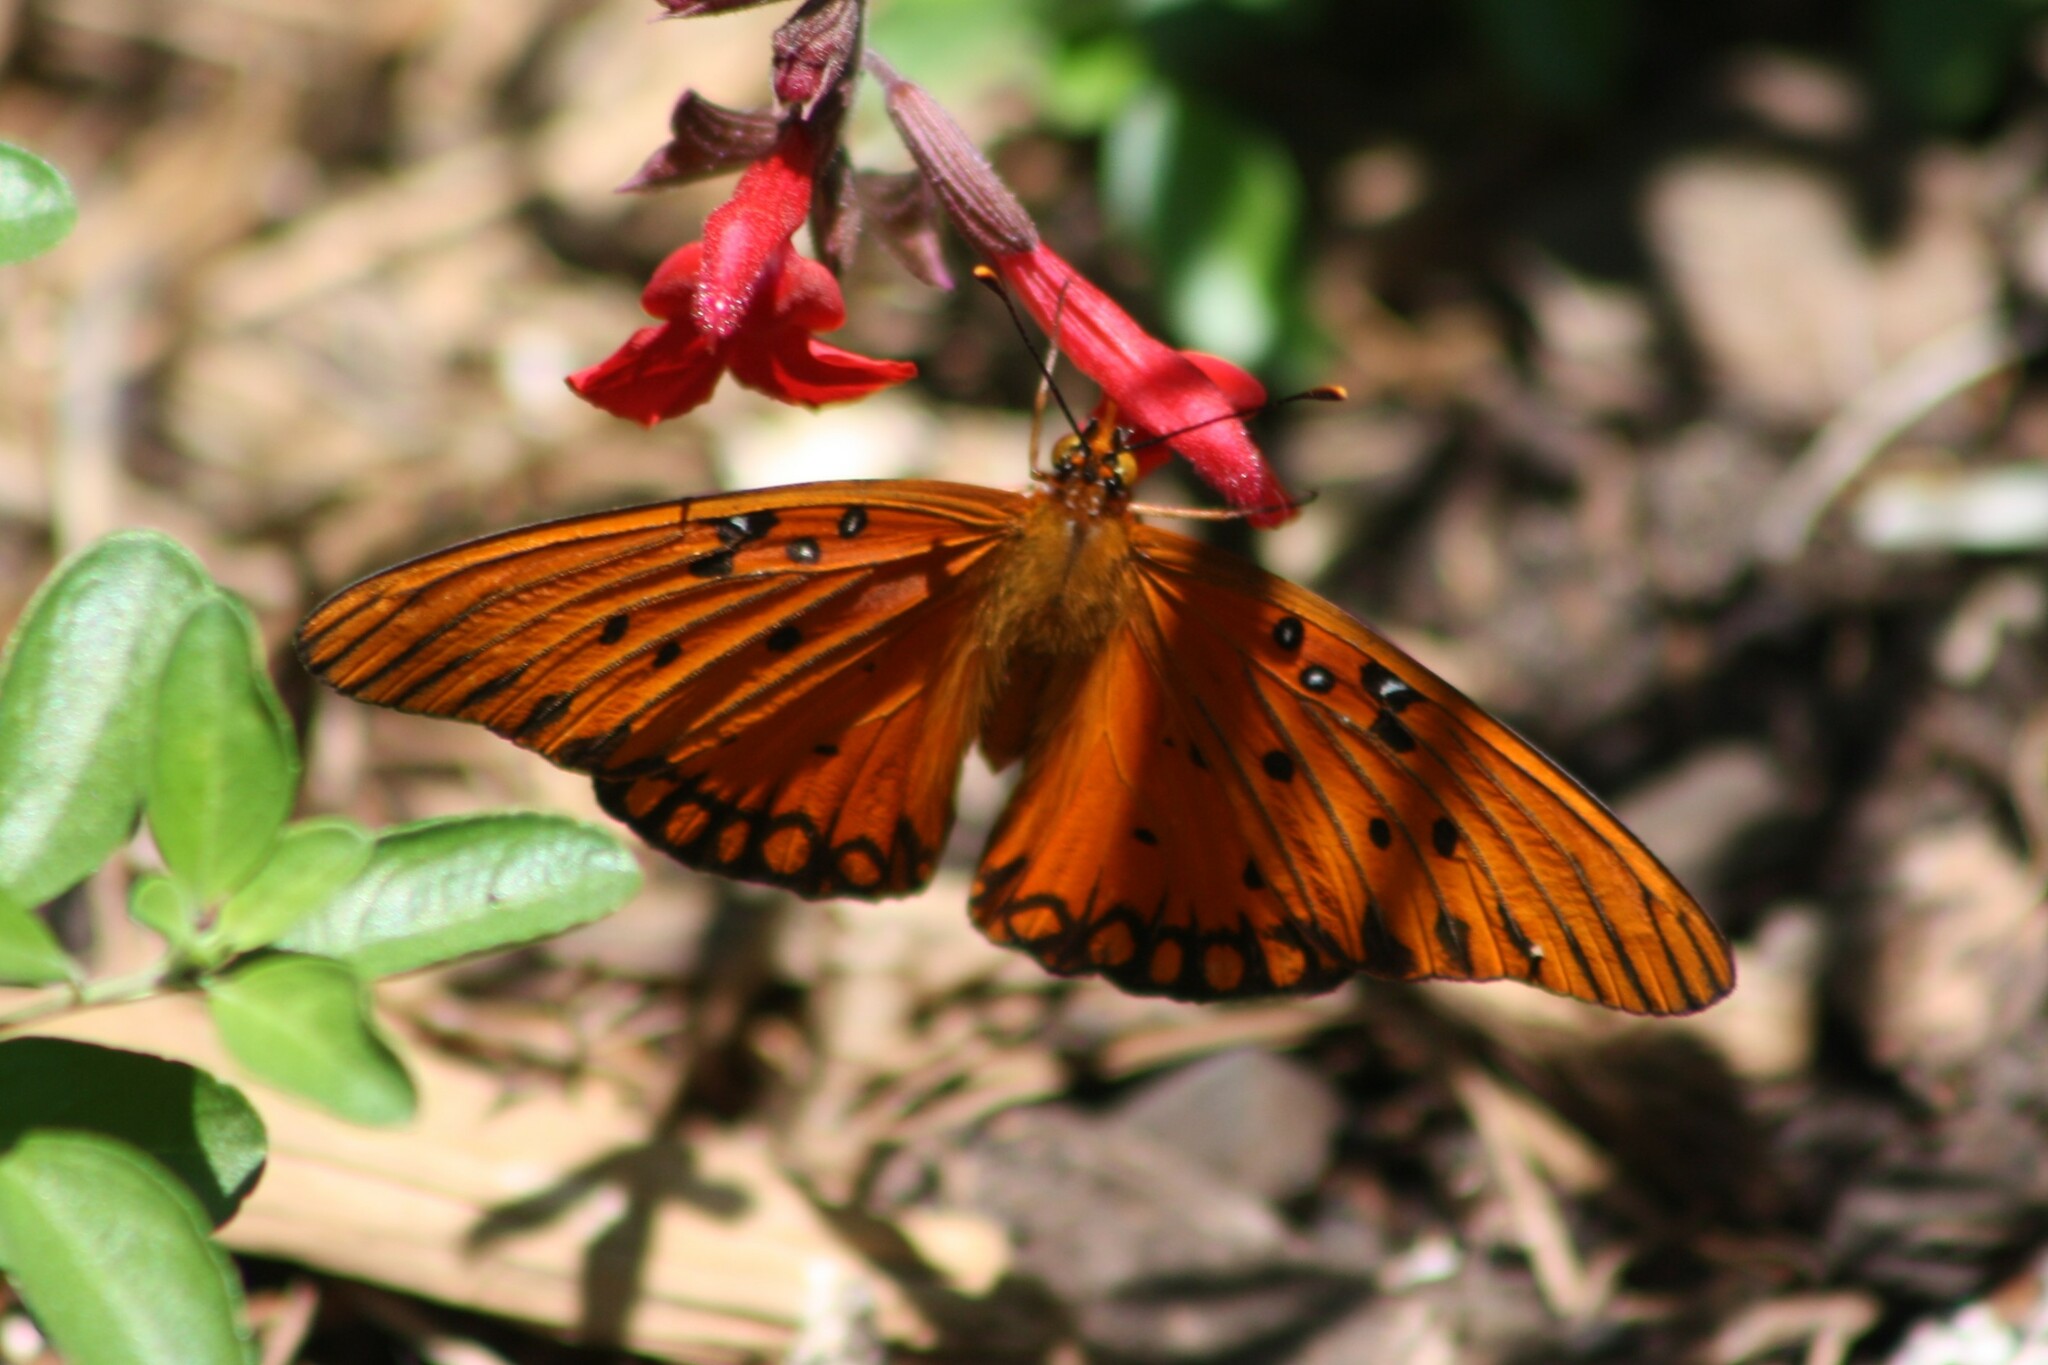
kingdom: Animalia
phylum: Arthropoda
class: Insecta
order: Lepidoptera
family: Nymphalidae
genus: Dione
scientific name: Dione vanillae
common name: Gulf fritillary
